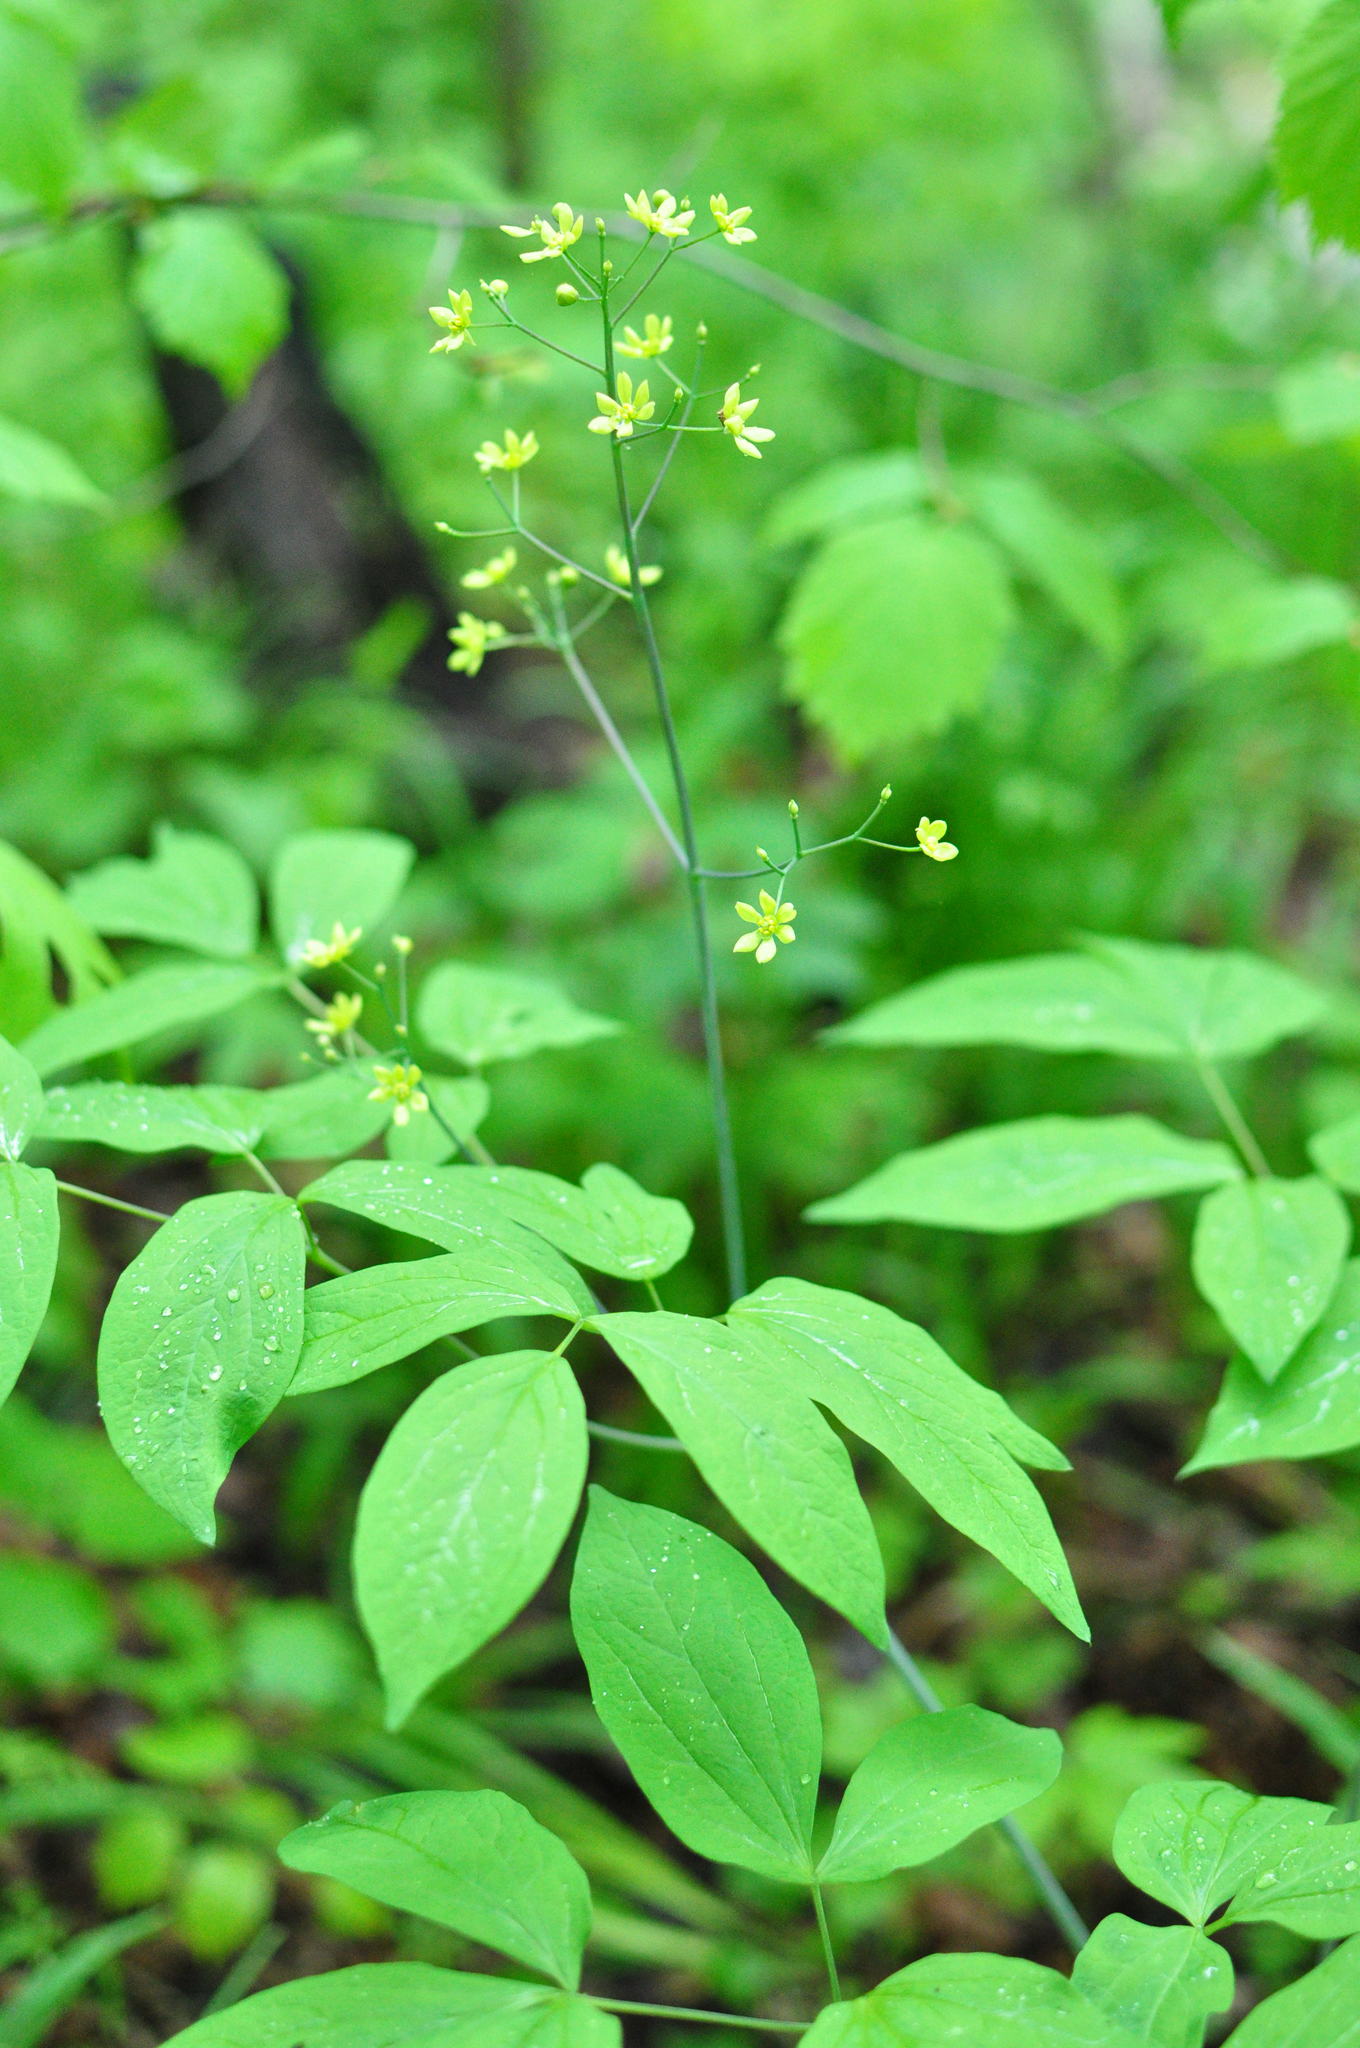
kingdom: Plantae
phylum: Tracheophyta
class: Magnoliopsida
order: Ranunculales
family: Berberidaceae
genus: Caulophyllum
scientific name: Caulophyllum robustum
